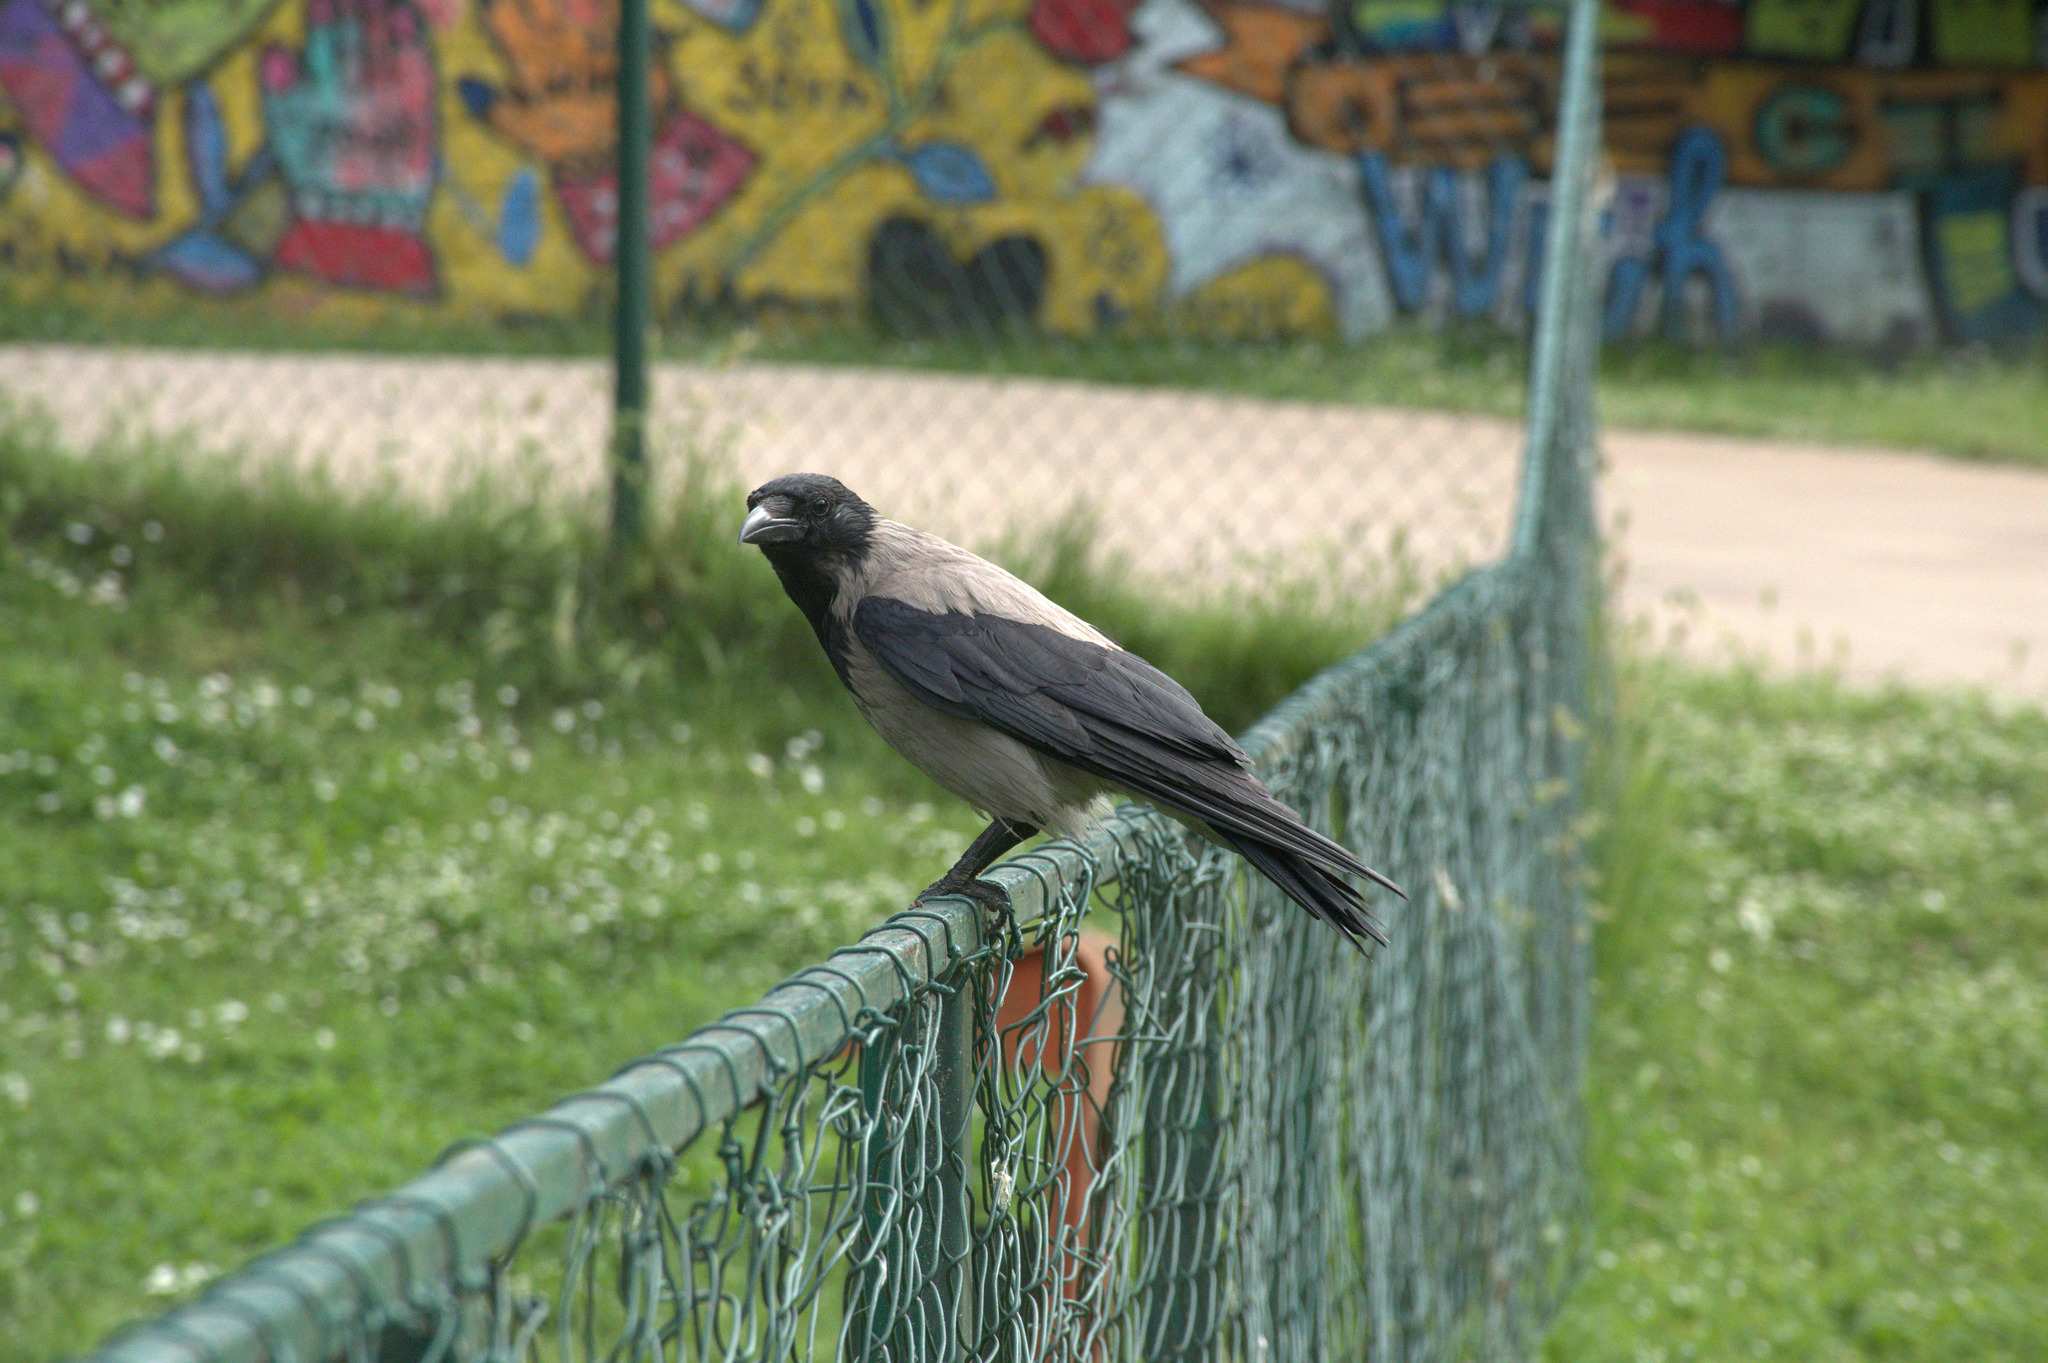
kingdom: Animalia
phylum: Chordata
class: Aves
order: Passeriformes
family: Corvidae
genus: Corvus
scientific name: Corvus cornix
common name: Hooded crow
